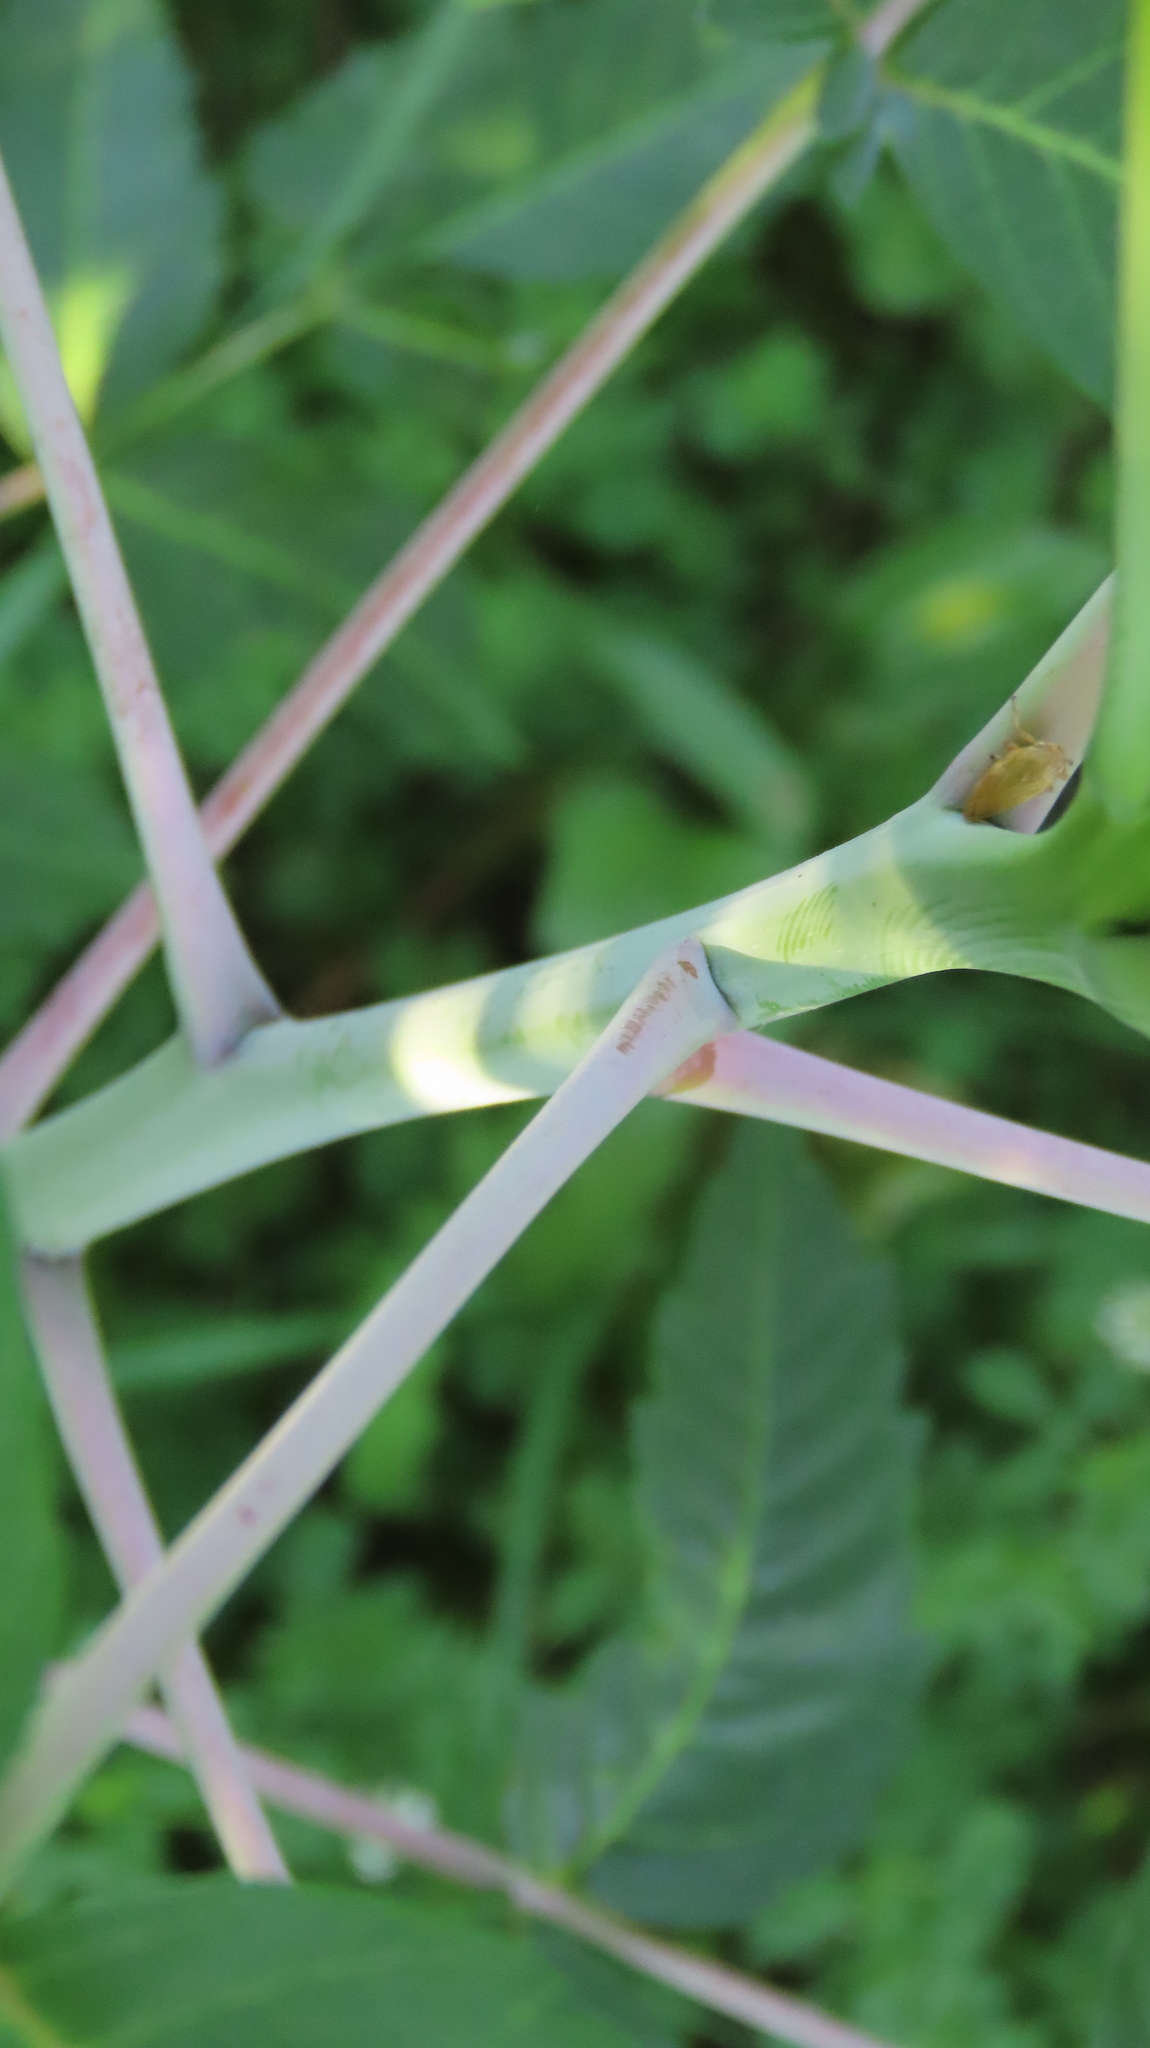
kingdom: Plantae
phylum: Tracheophyta
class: Magnoliopsida
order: Sapindales
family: Anacardiaceae
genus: Rhus
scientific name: Rhus glabra
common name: Scarlet sumac
